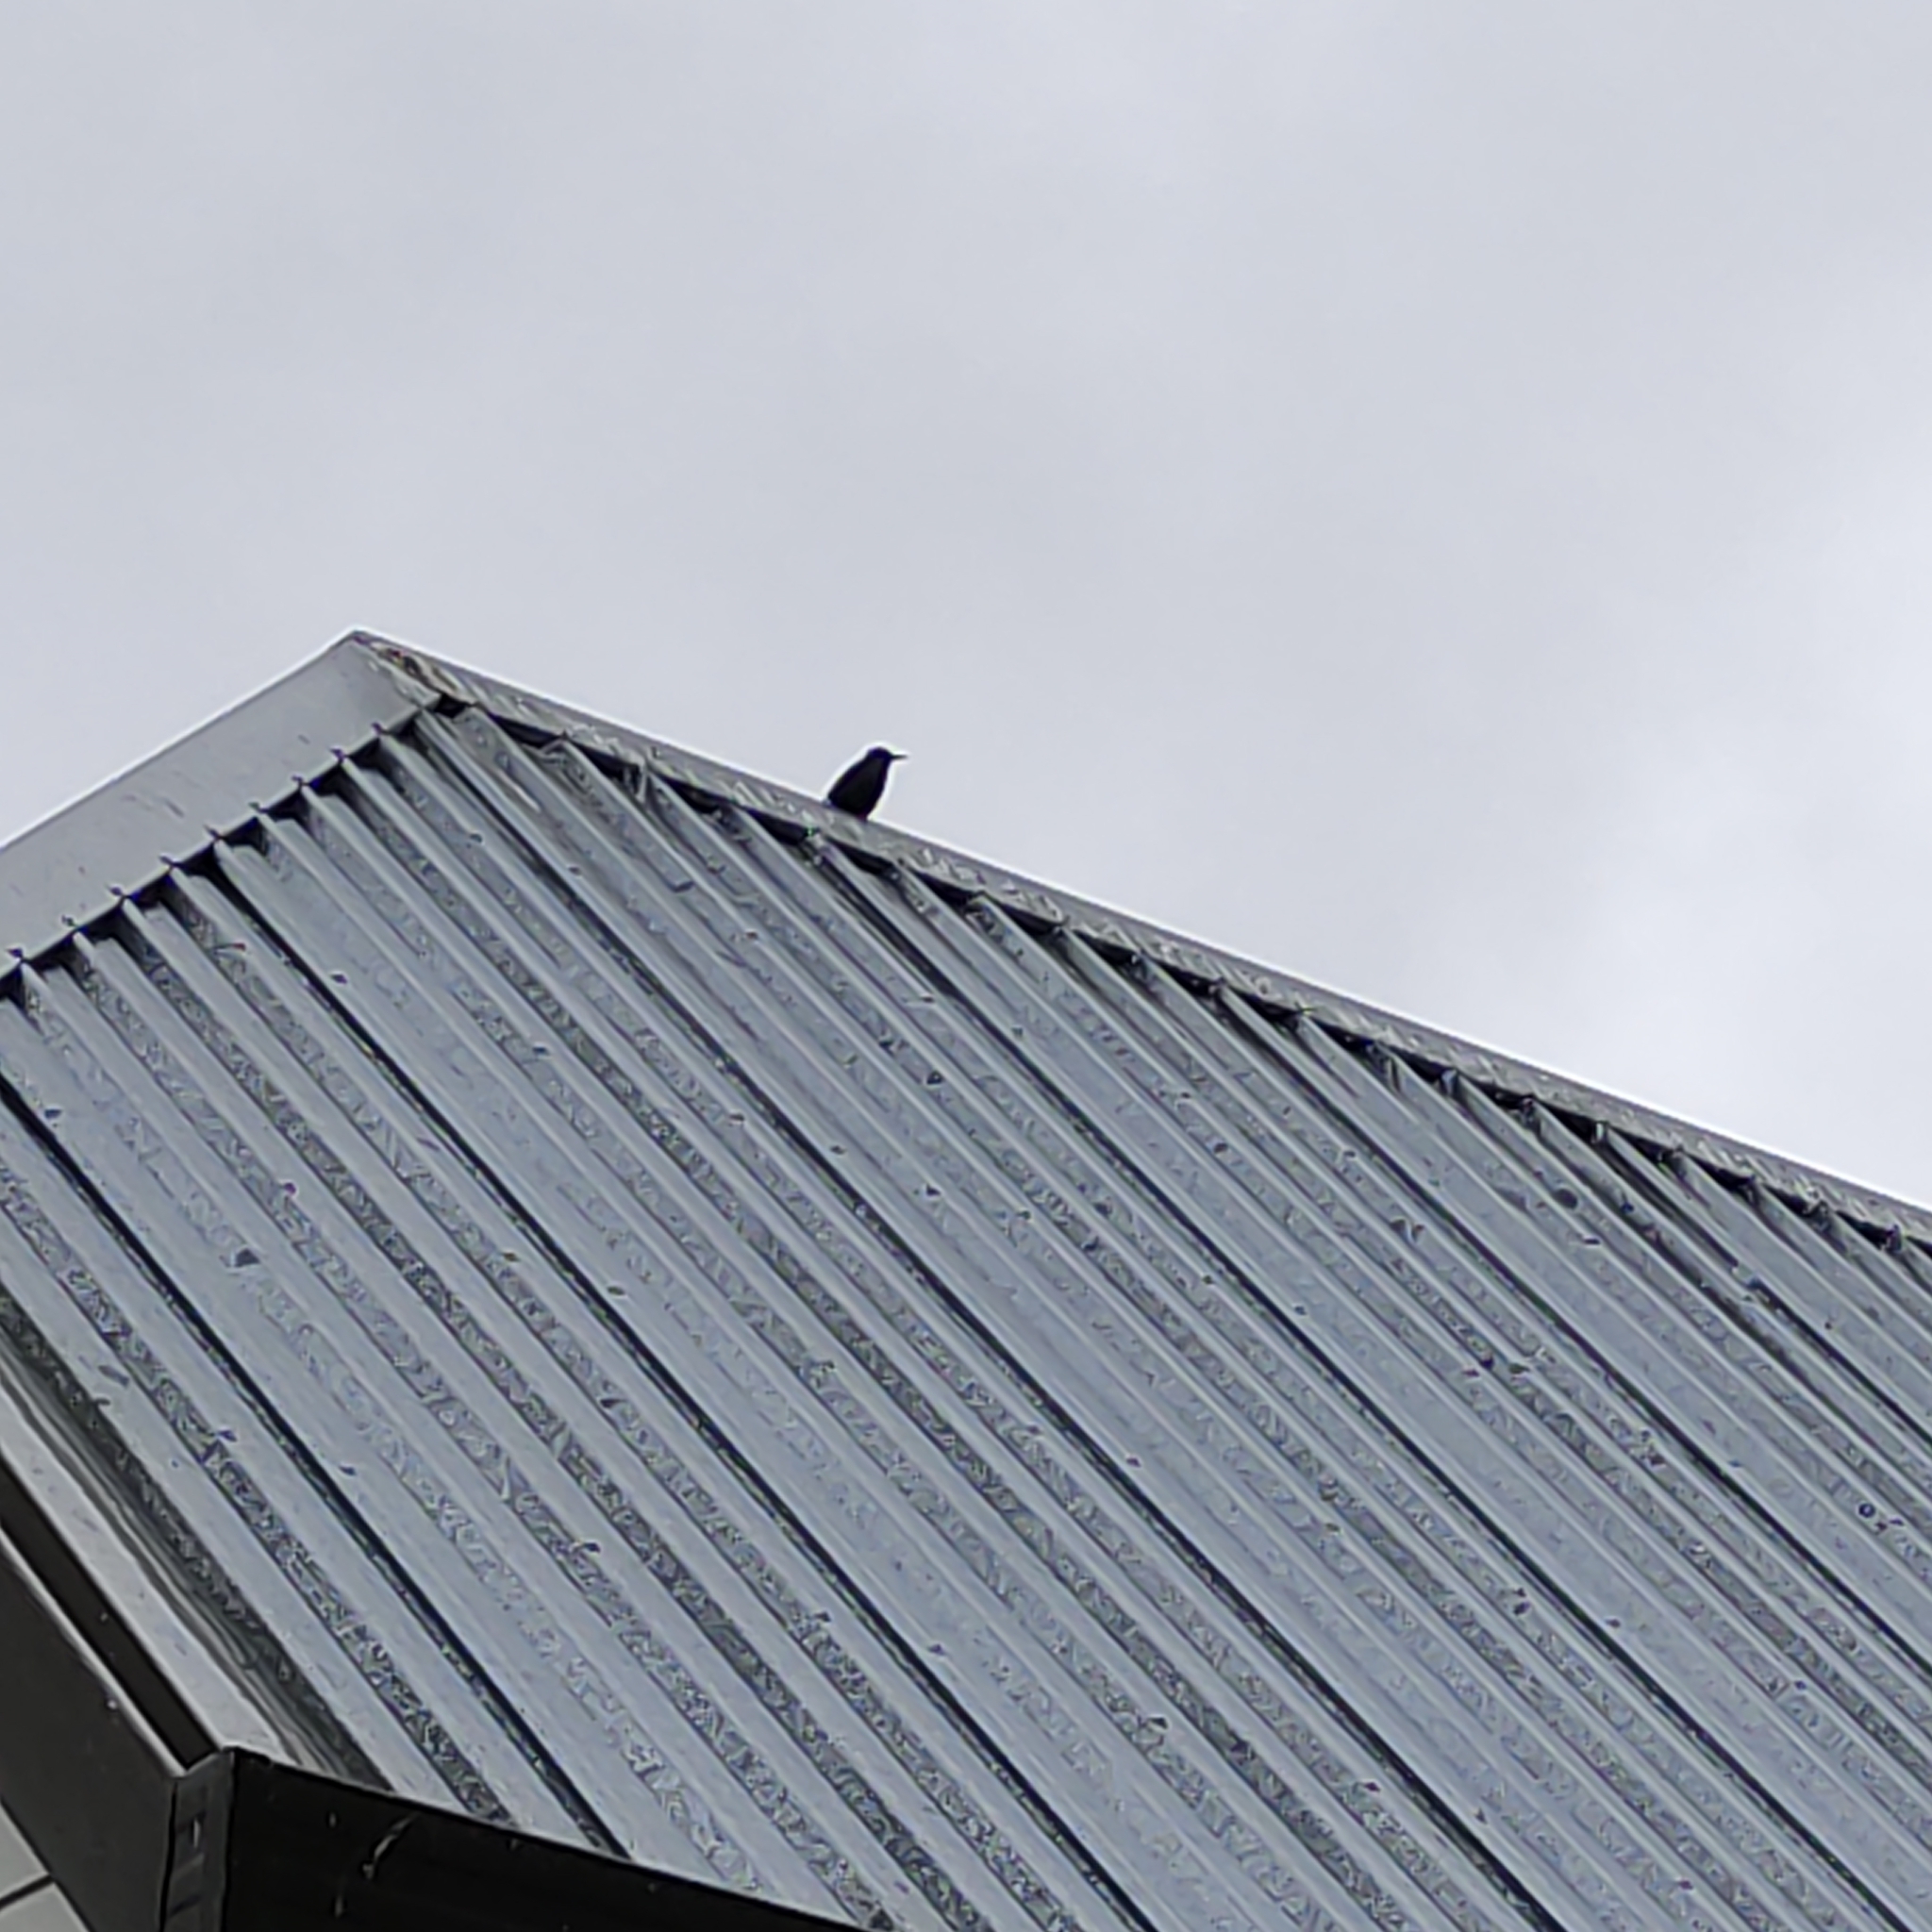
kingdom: Animalia
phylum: Chordata
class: Aves
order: Passeriformes
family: Sturnidae
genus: Sturnus
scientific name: Sturnus vulgaris
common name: Common starling
